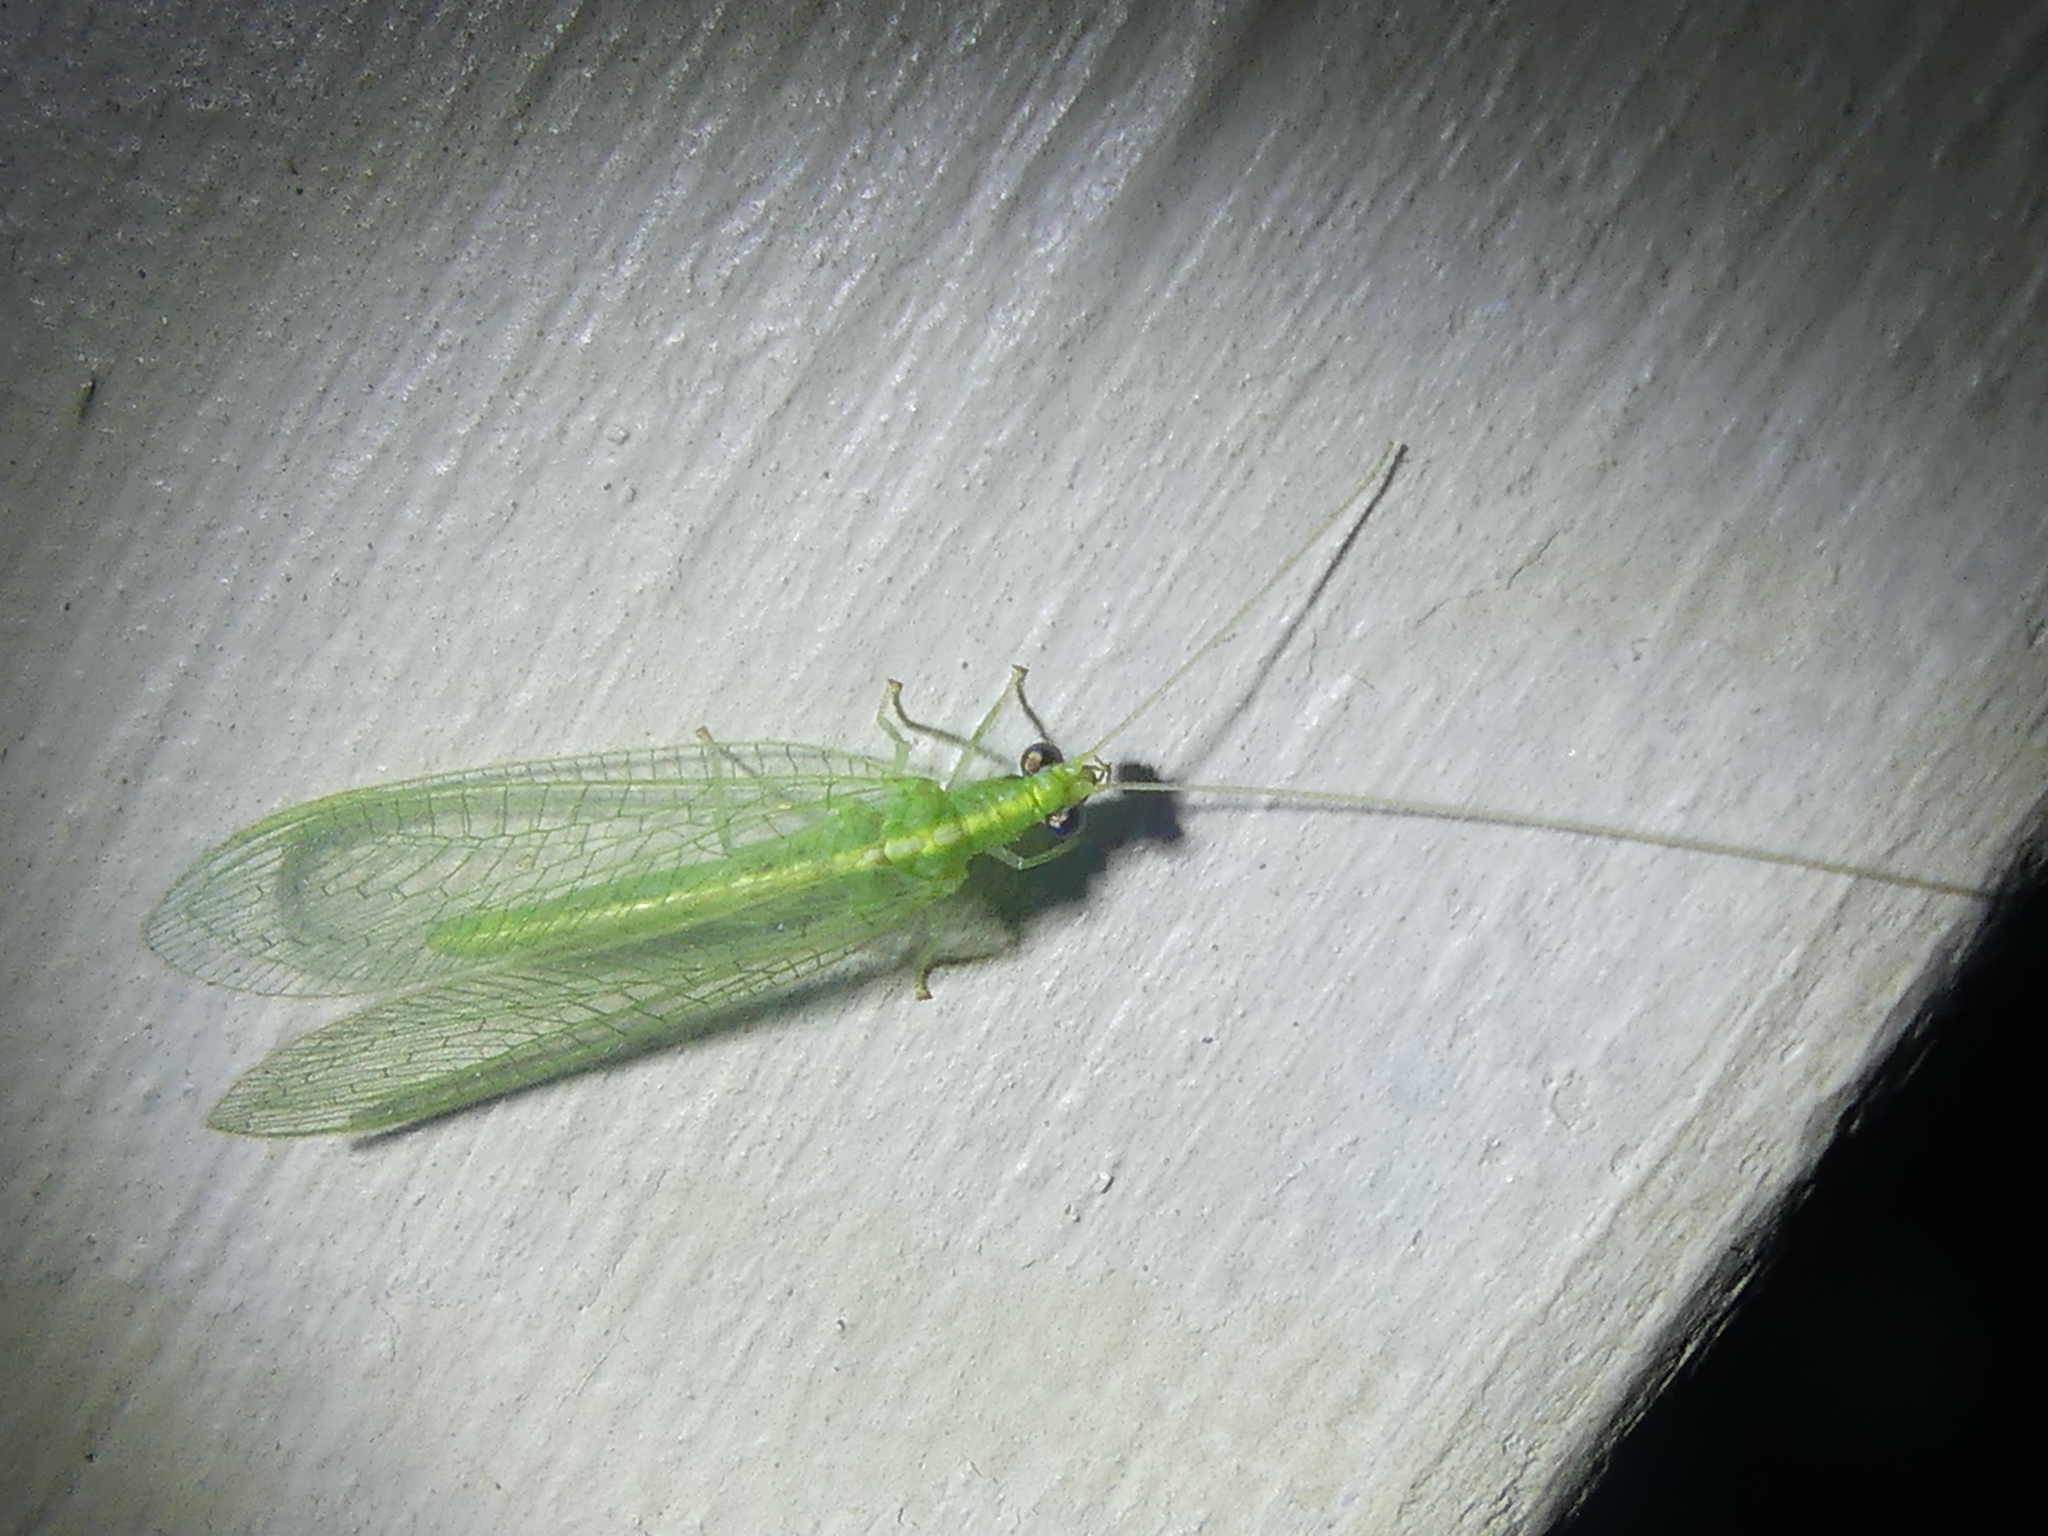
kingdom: Animalia
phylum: Arthropoda
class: Insecta
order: Neuroptera
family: Chrysopidae
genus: Chrysoperla
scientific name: Chrysoperla
